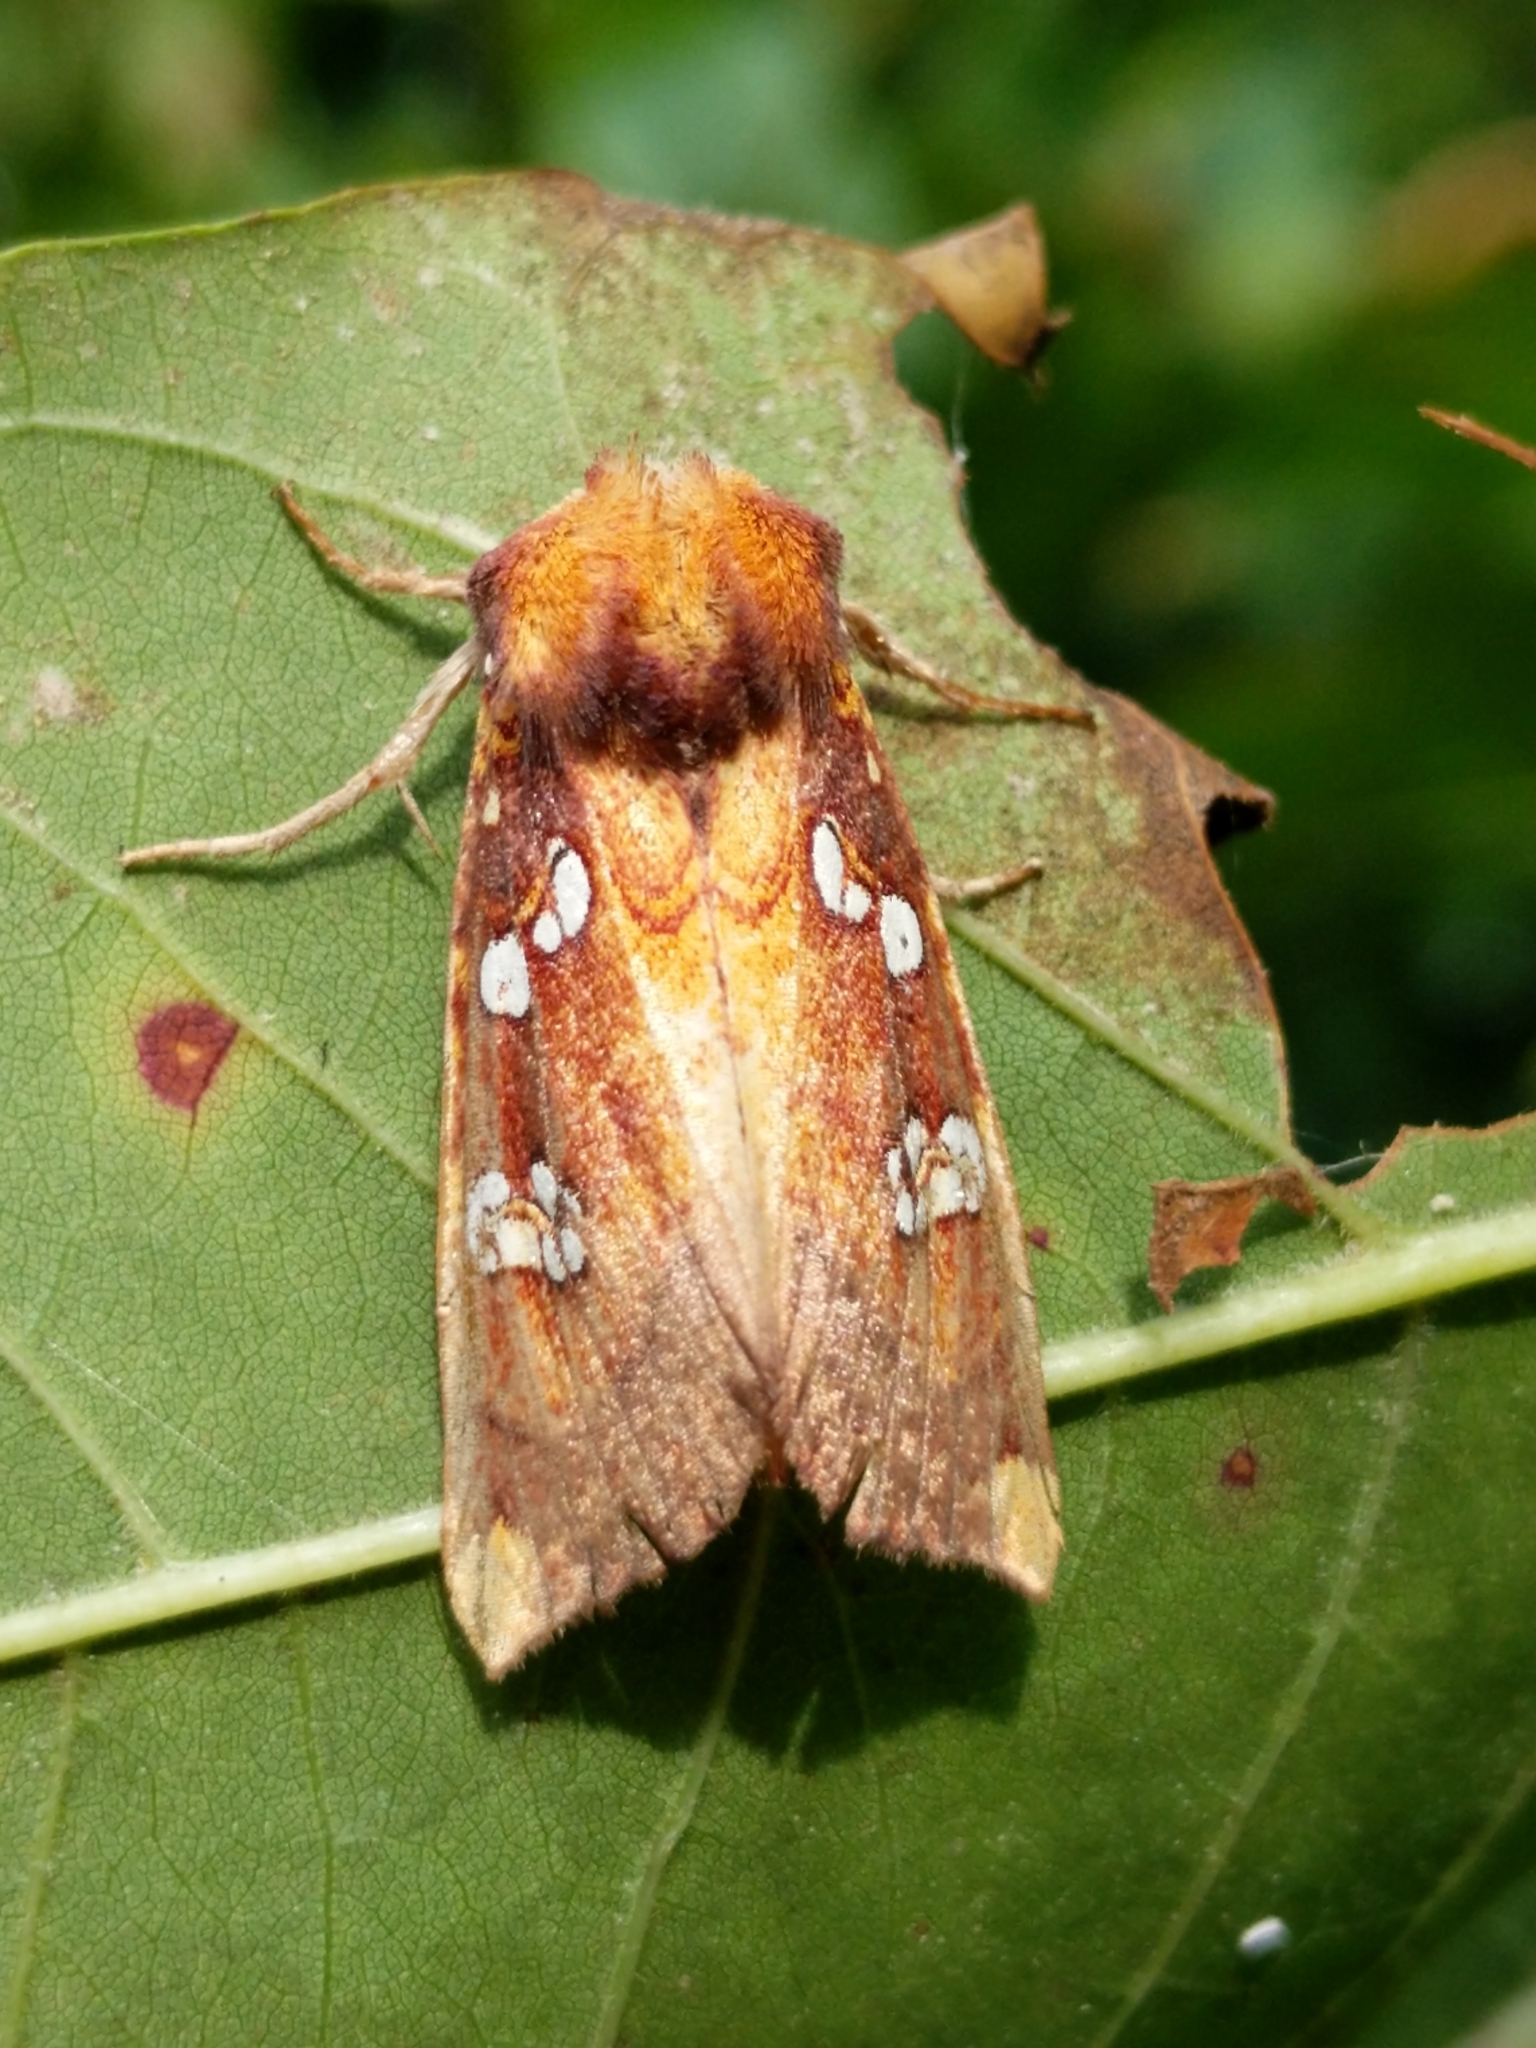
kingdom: Animalia
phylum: Arthropoda
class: Insecta
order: Lepidoptera
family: Noctuidae
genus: Papaipema
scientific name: Papaipema baptisiae
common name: Wild indigo borer moth
